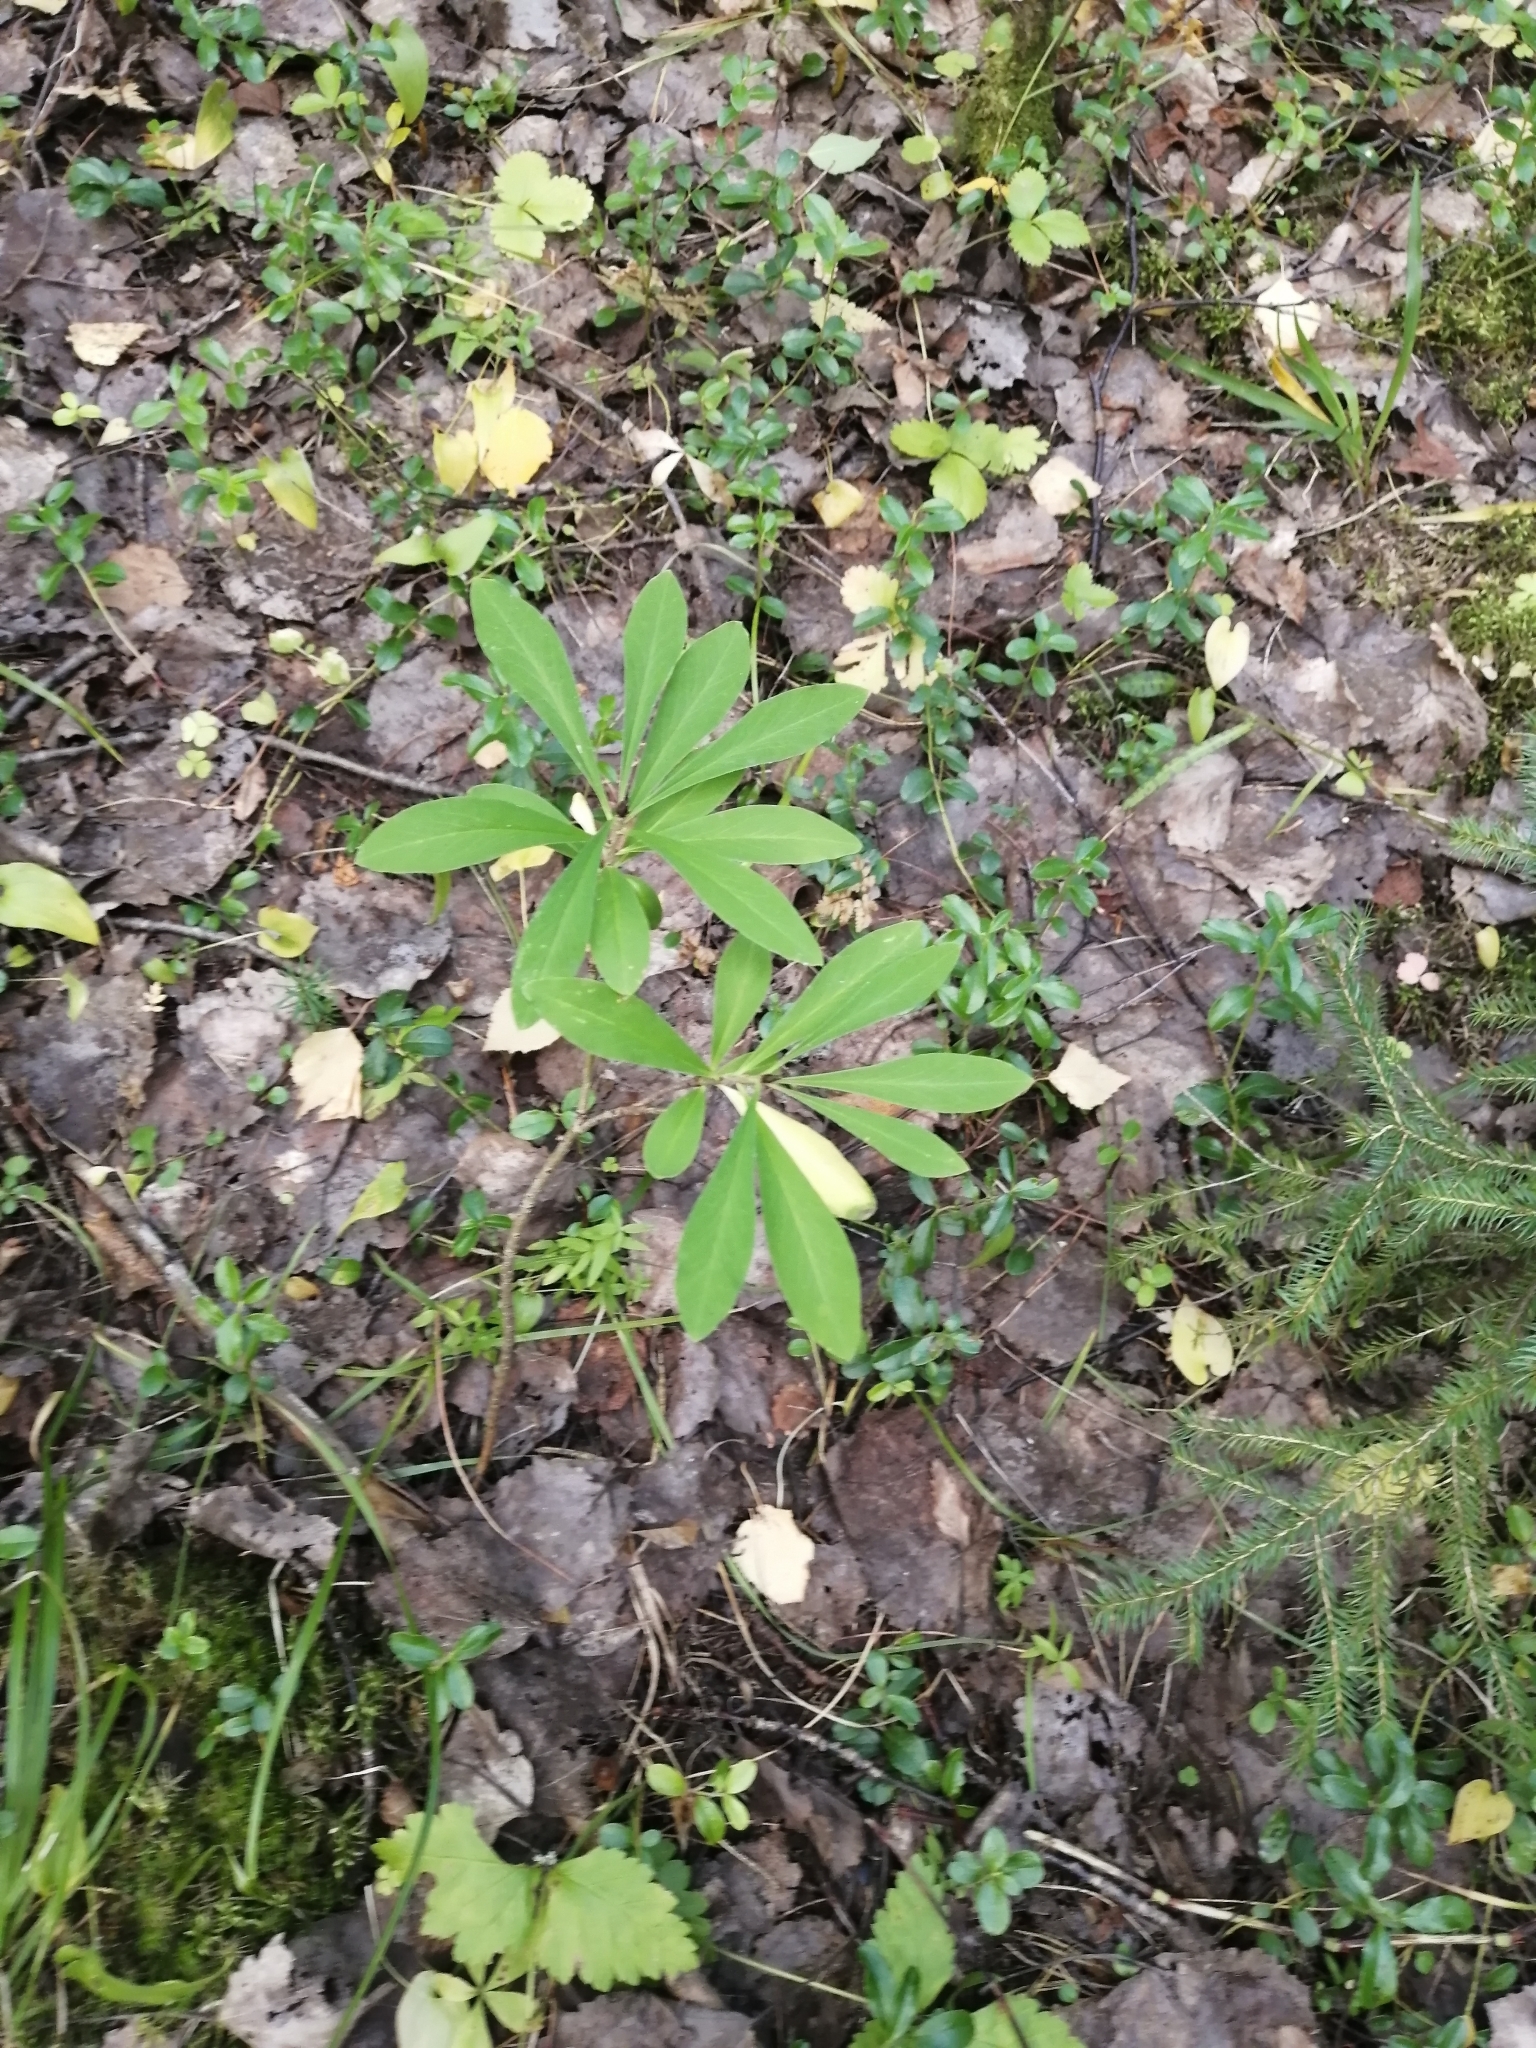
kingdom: Plantae
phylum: Tracheophyta
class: Magnoliopsida
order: Malvales
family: Thymelaeaceae
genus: Daphne
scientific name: Daphne mezereum
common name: Mezereon
